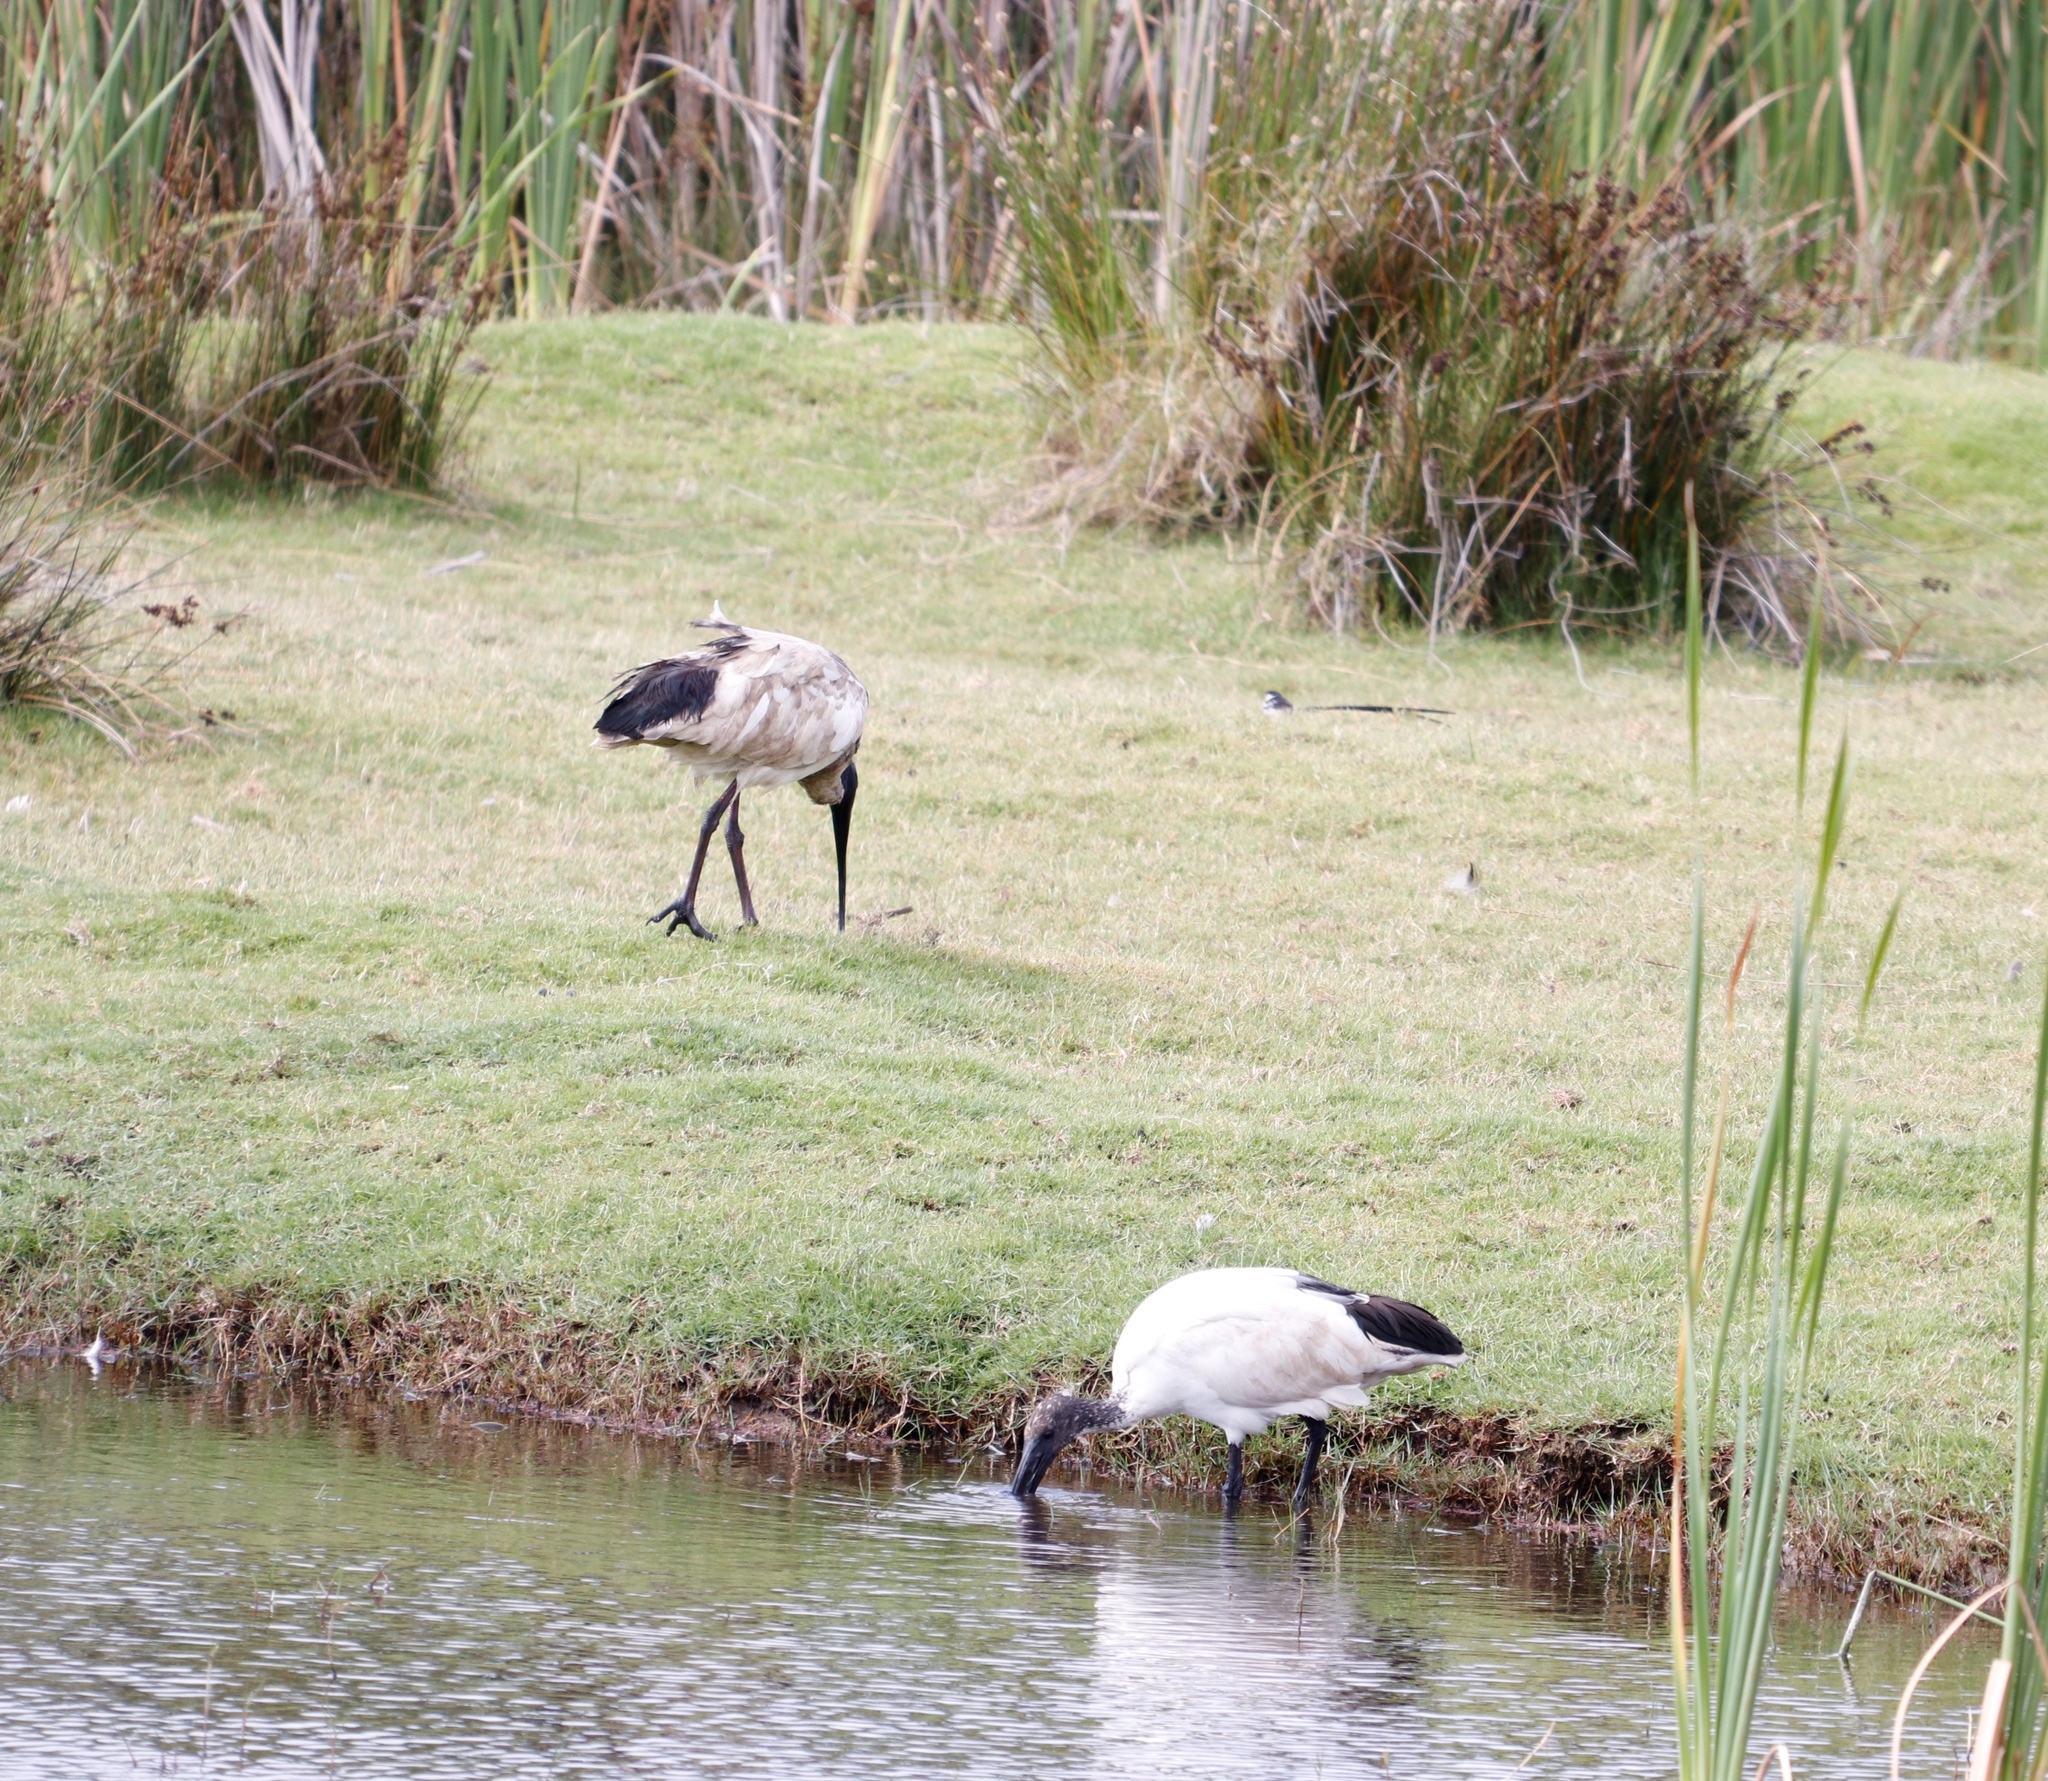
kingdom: Animalia
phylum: Chordata
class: Aves
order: Pelecaniformes
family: Threskiornithidae
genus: Threskiornis
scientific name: Threskiornis aethiopicus
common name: Sacred ibis
